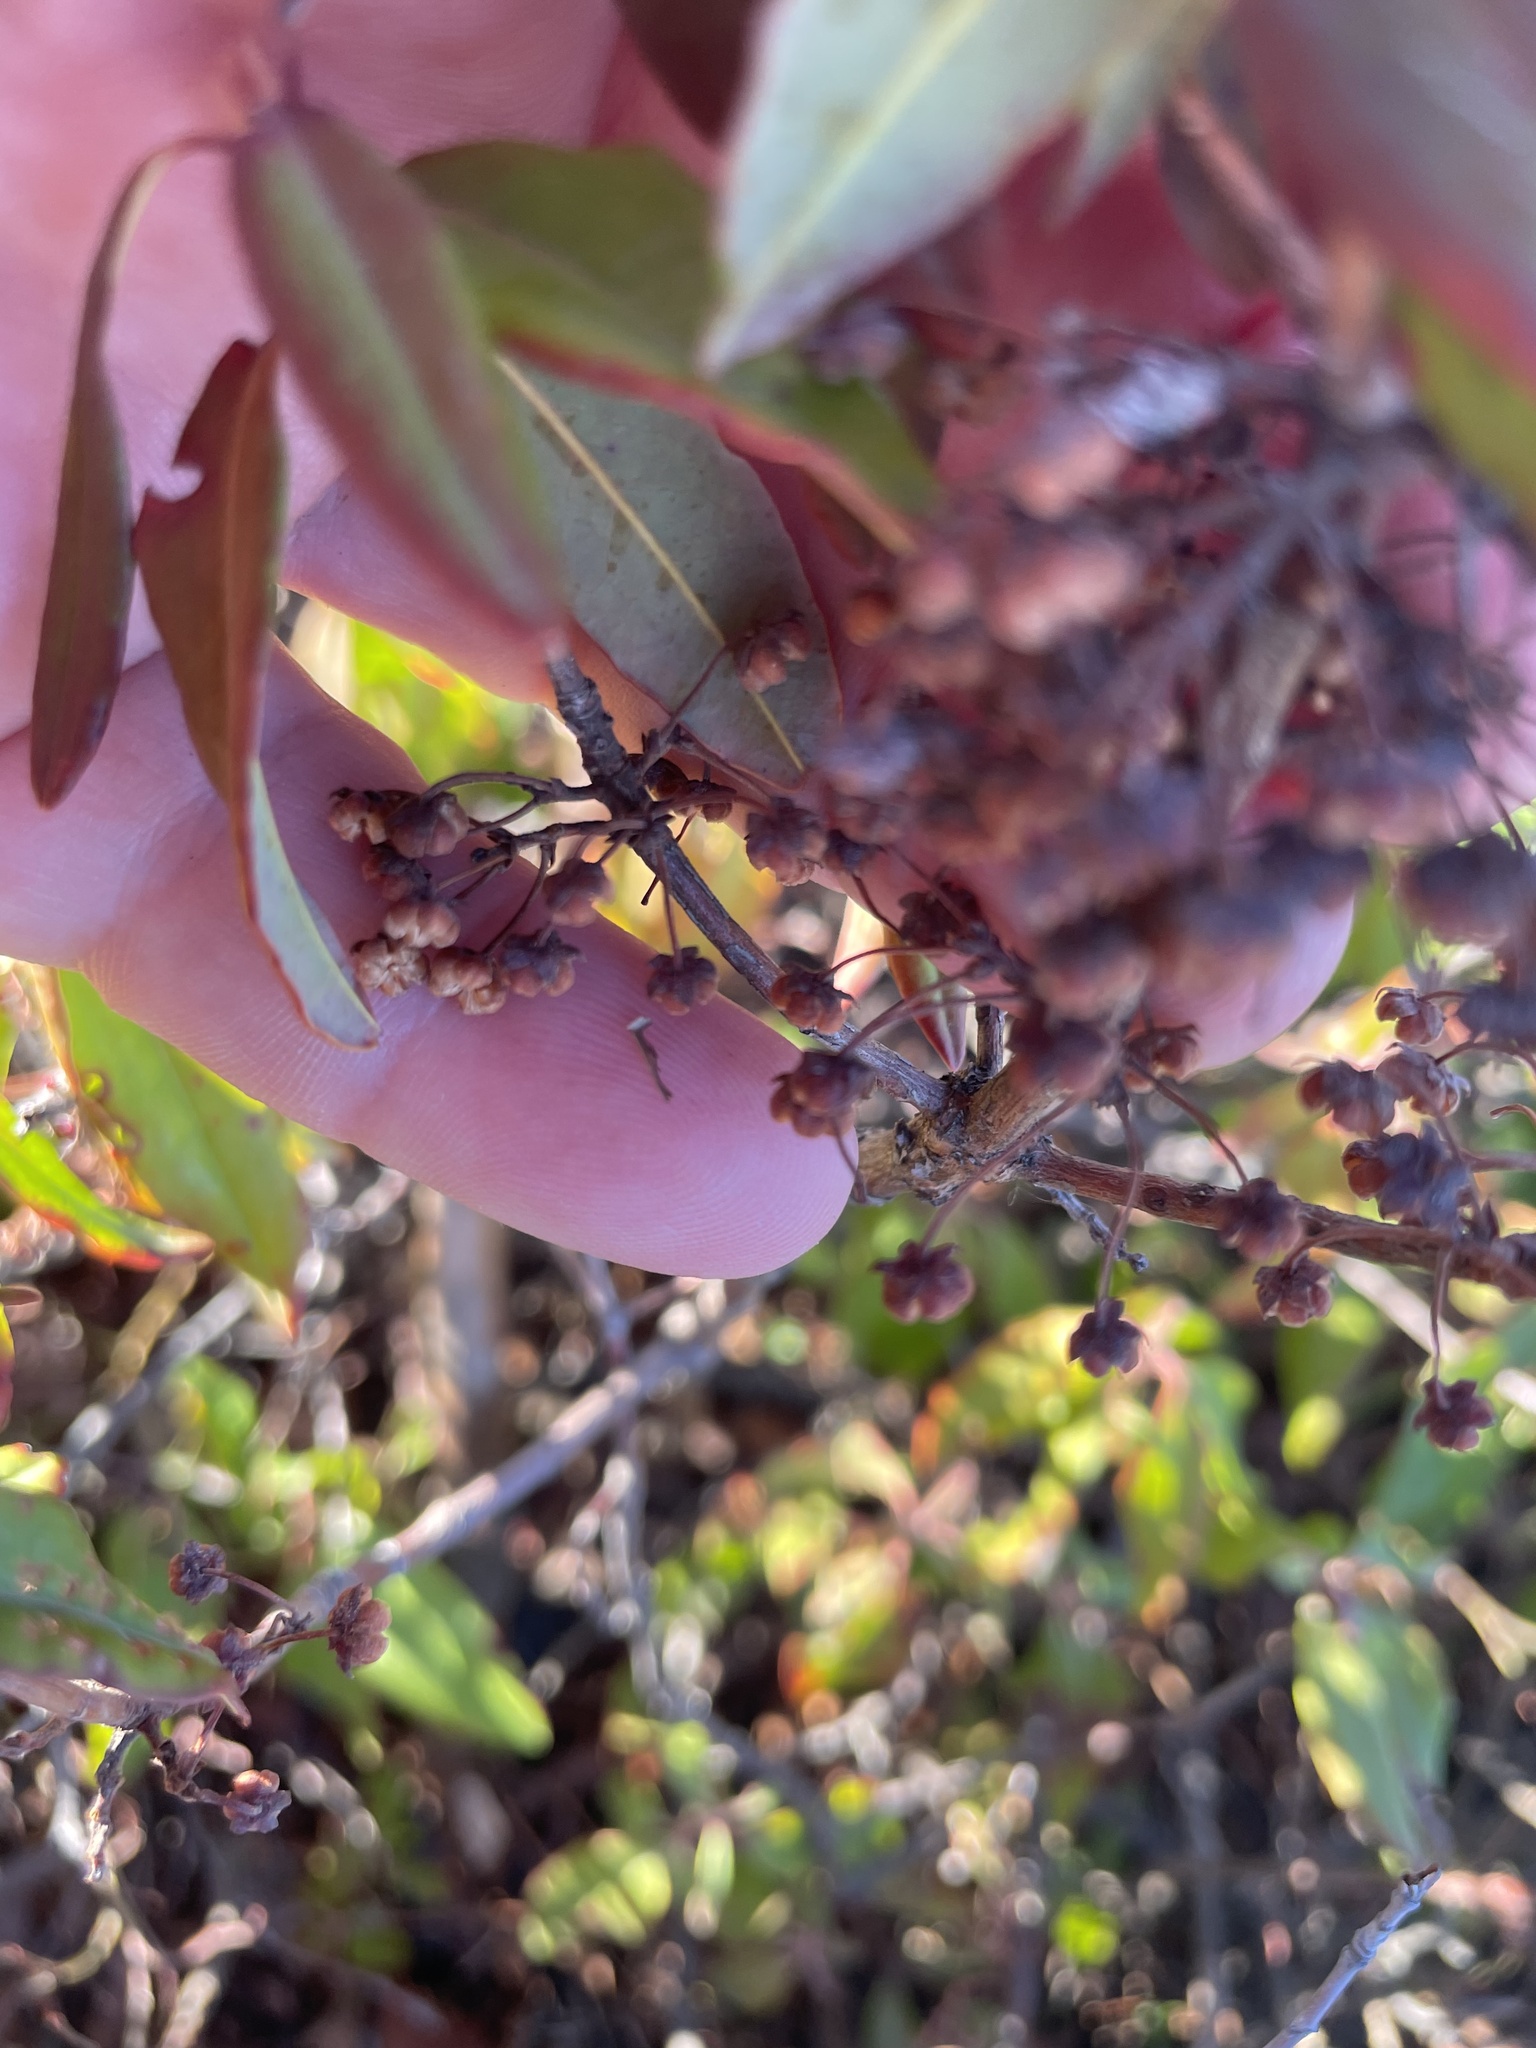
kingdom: Plantae
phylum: Tracheophyta
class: Magnoliopsida
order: Ericales
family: Ericaceae
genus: Kalmia
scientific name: Kalmia angustifolia
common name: Sheep-laurel
